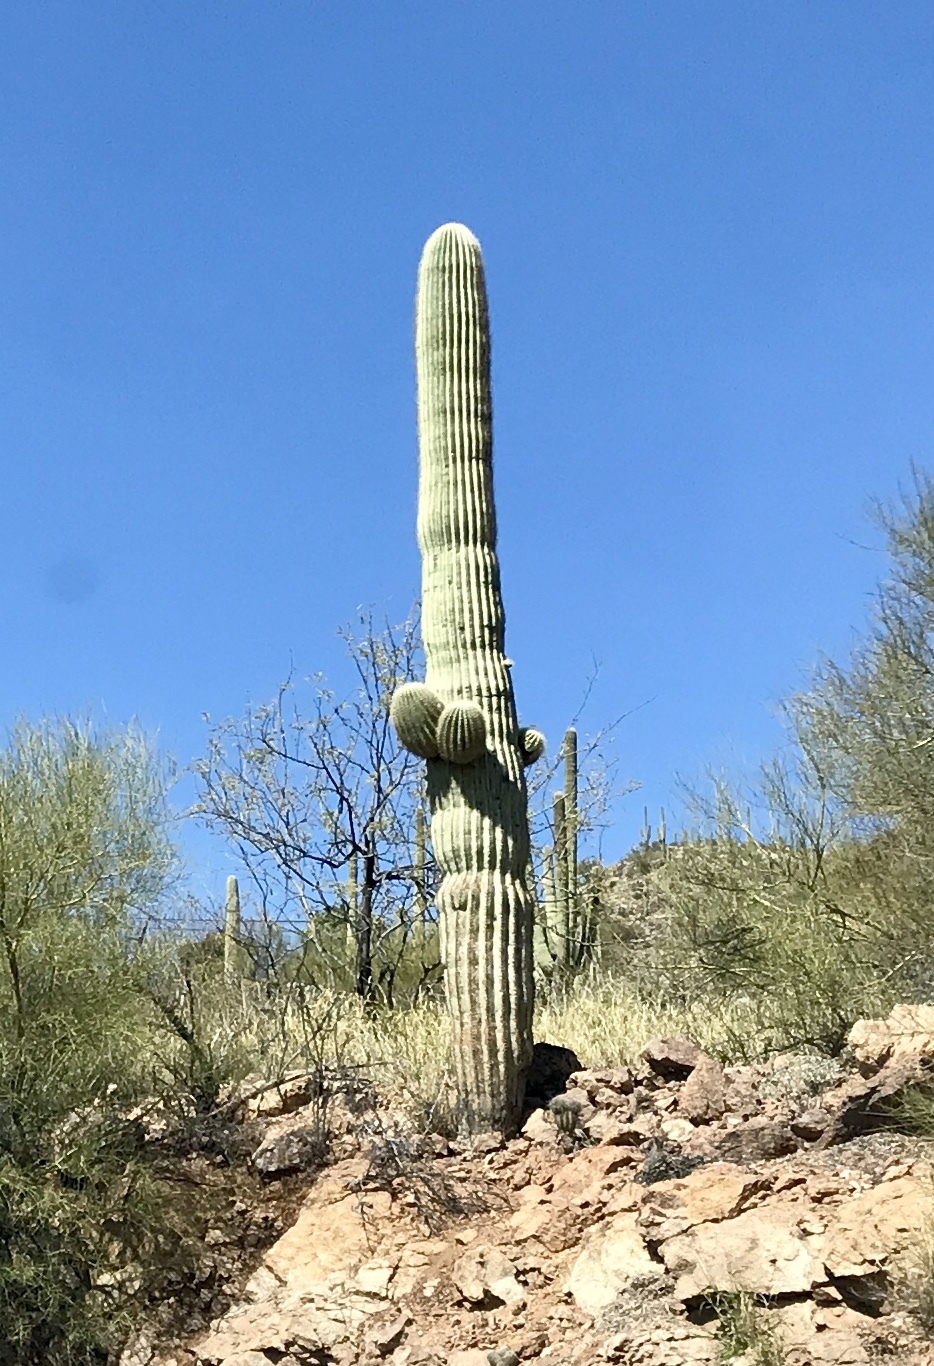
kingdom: Plantae
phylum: Tracheophyta
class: Magnoliopsida
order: Caryophyllales
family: Cactaceae
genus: Carnegiea
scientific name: Carnegiea gigantea
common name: Saguaro
